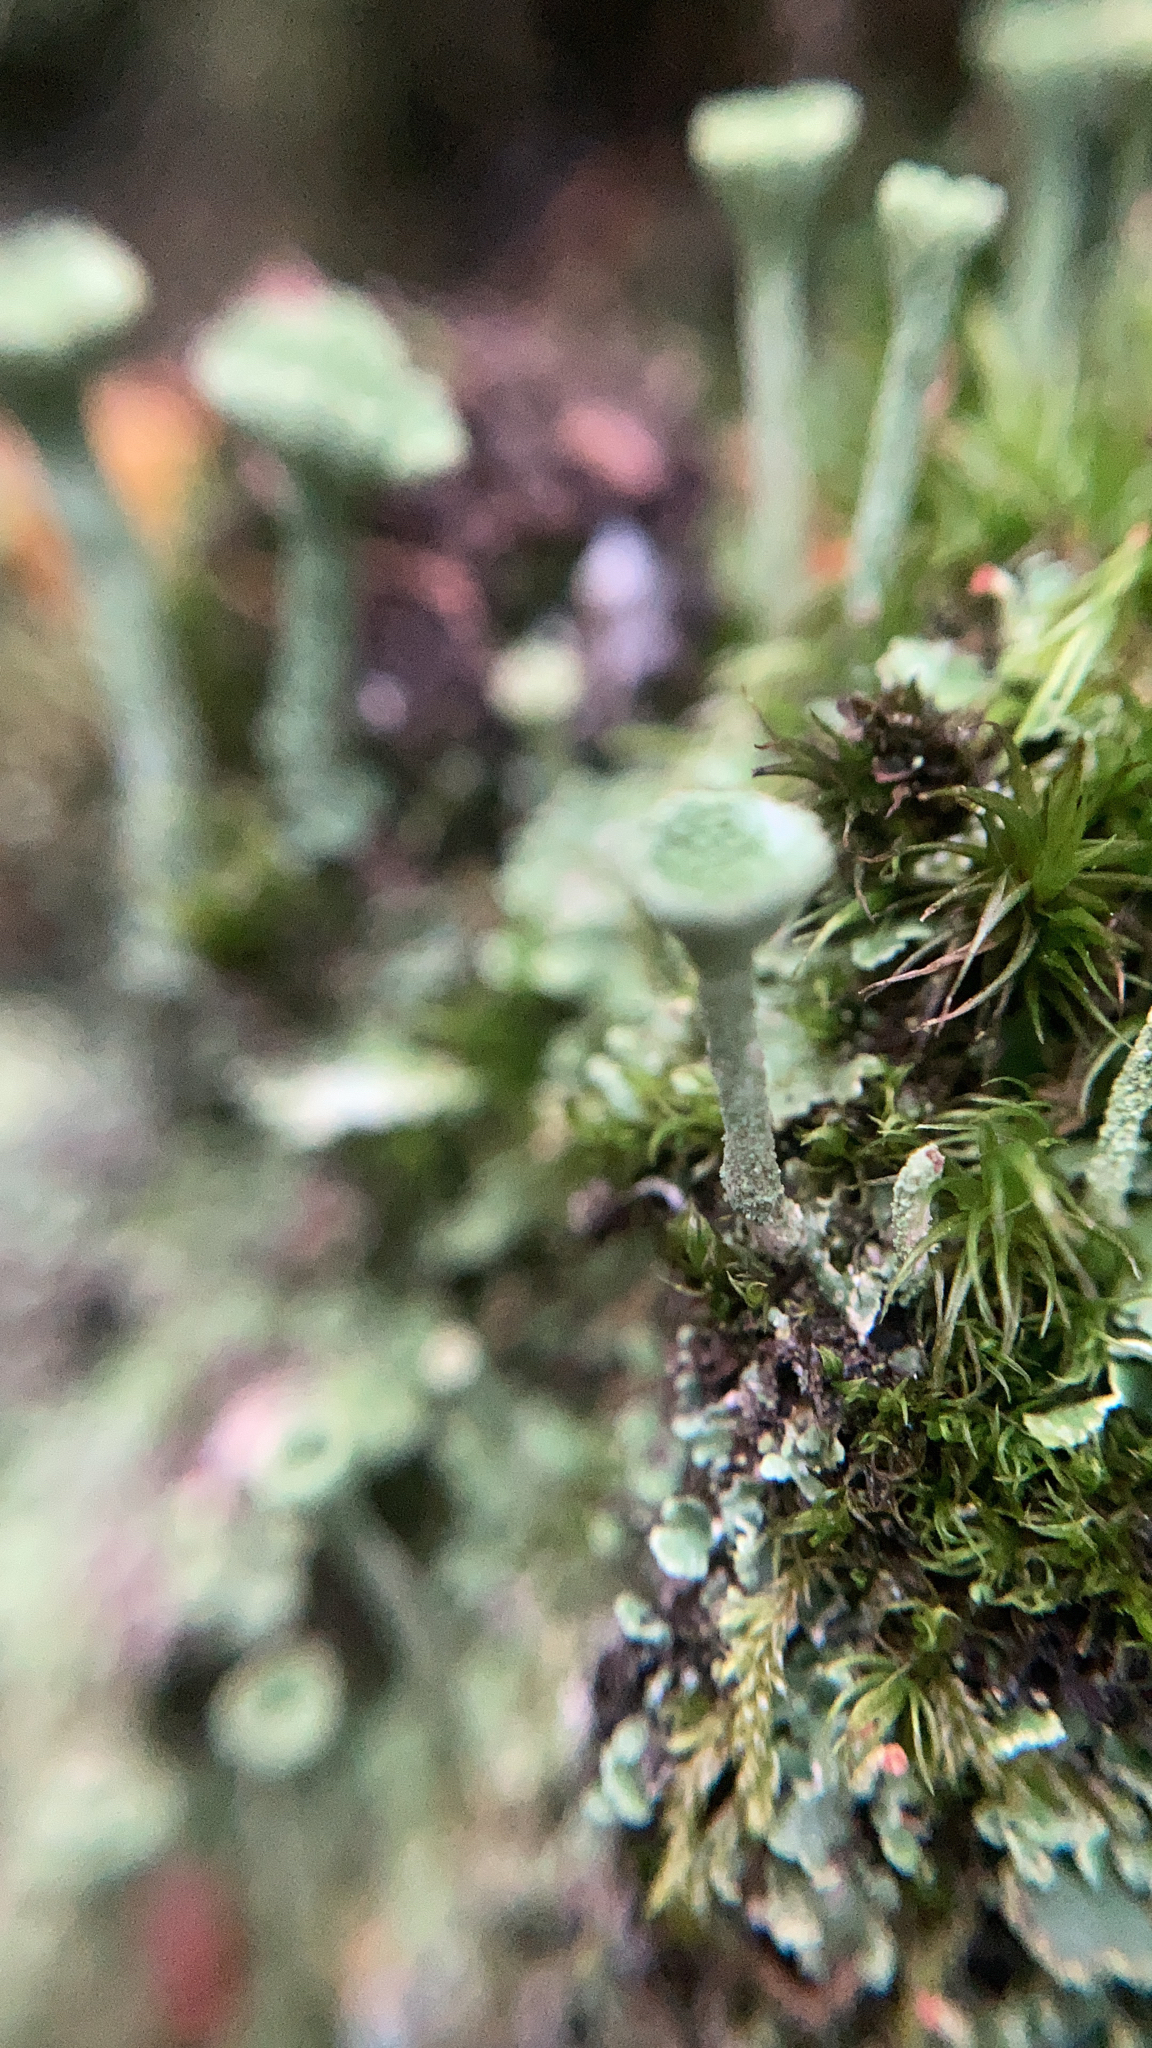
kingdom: Fungi
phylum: Ascomycota
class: Lecanoromycetes
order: Lecanorales
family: Cladoniaceae
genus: Cladonia
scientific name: Cladonia fimbriata
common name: Powdered trumpet lichen
